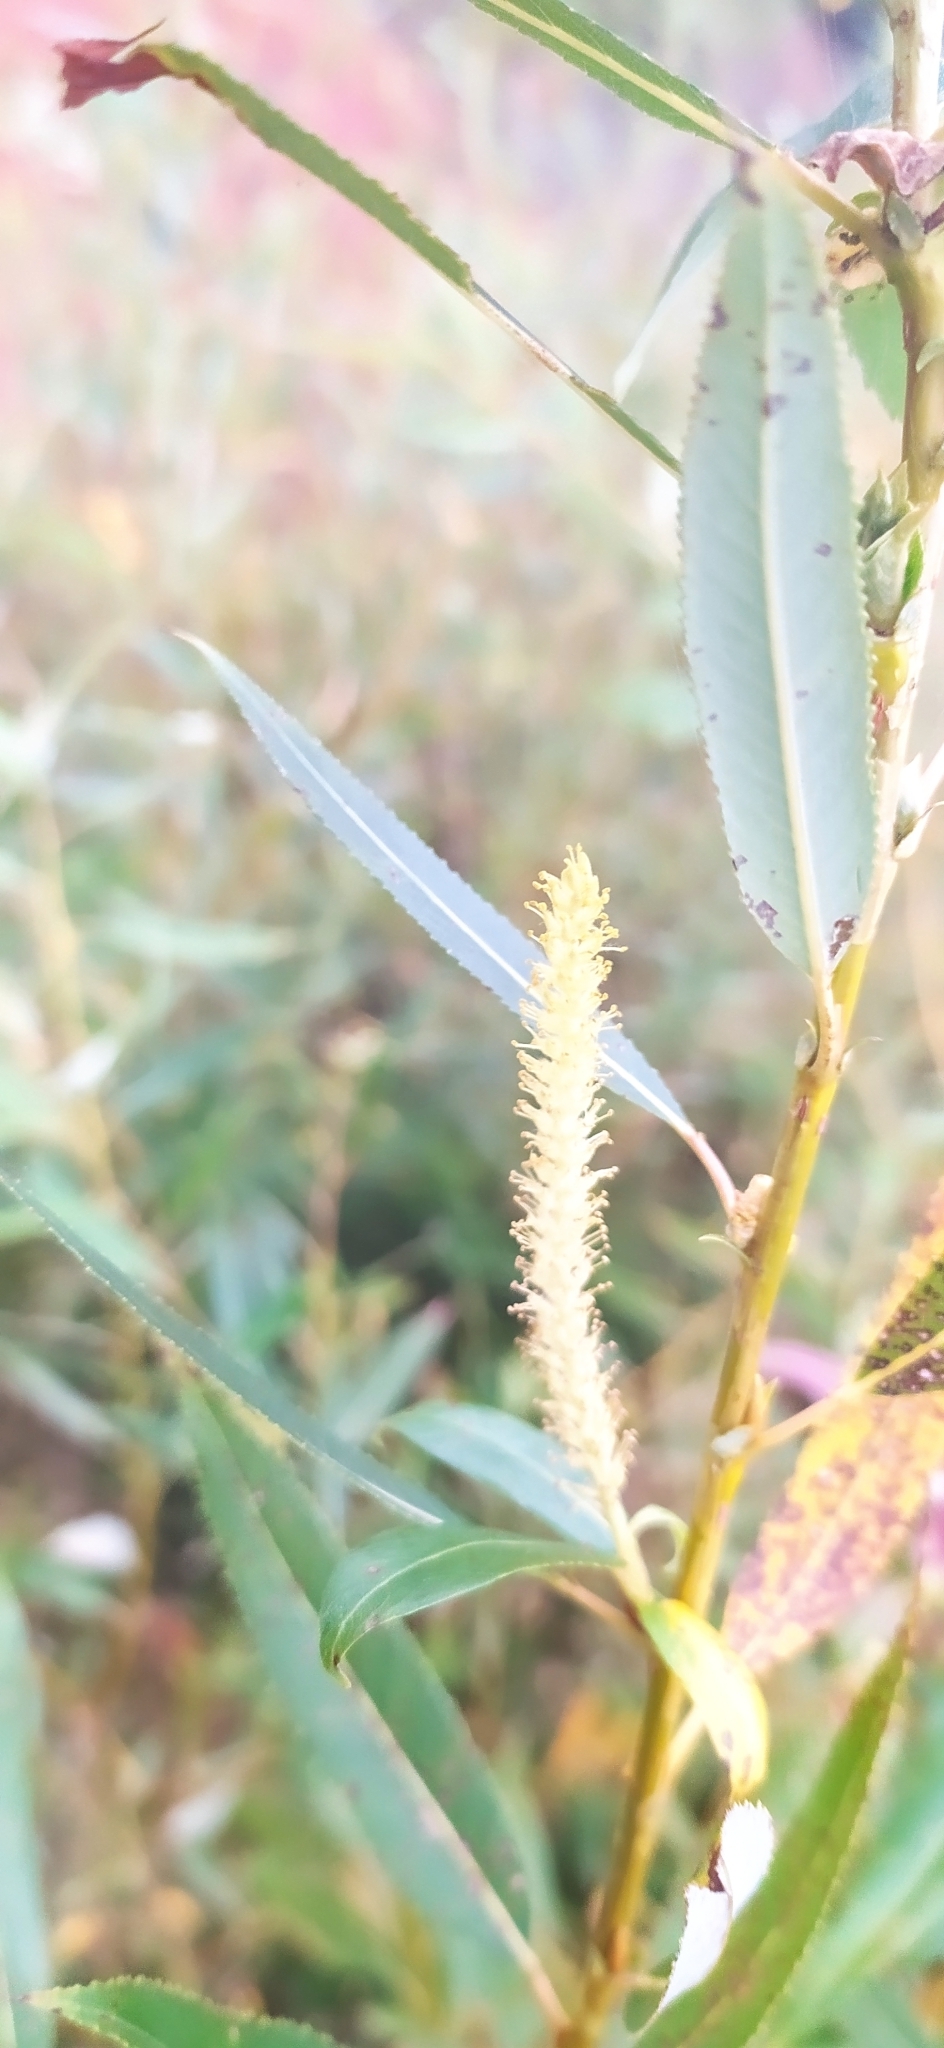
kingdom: Plantae
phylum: Tracheophyta
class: Magnoliopsida
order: Malpighiales
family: Salicaceae
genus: Salix
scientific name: Salix triandra
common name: Almond willow
